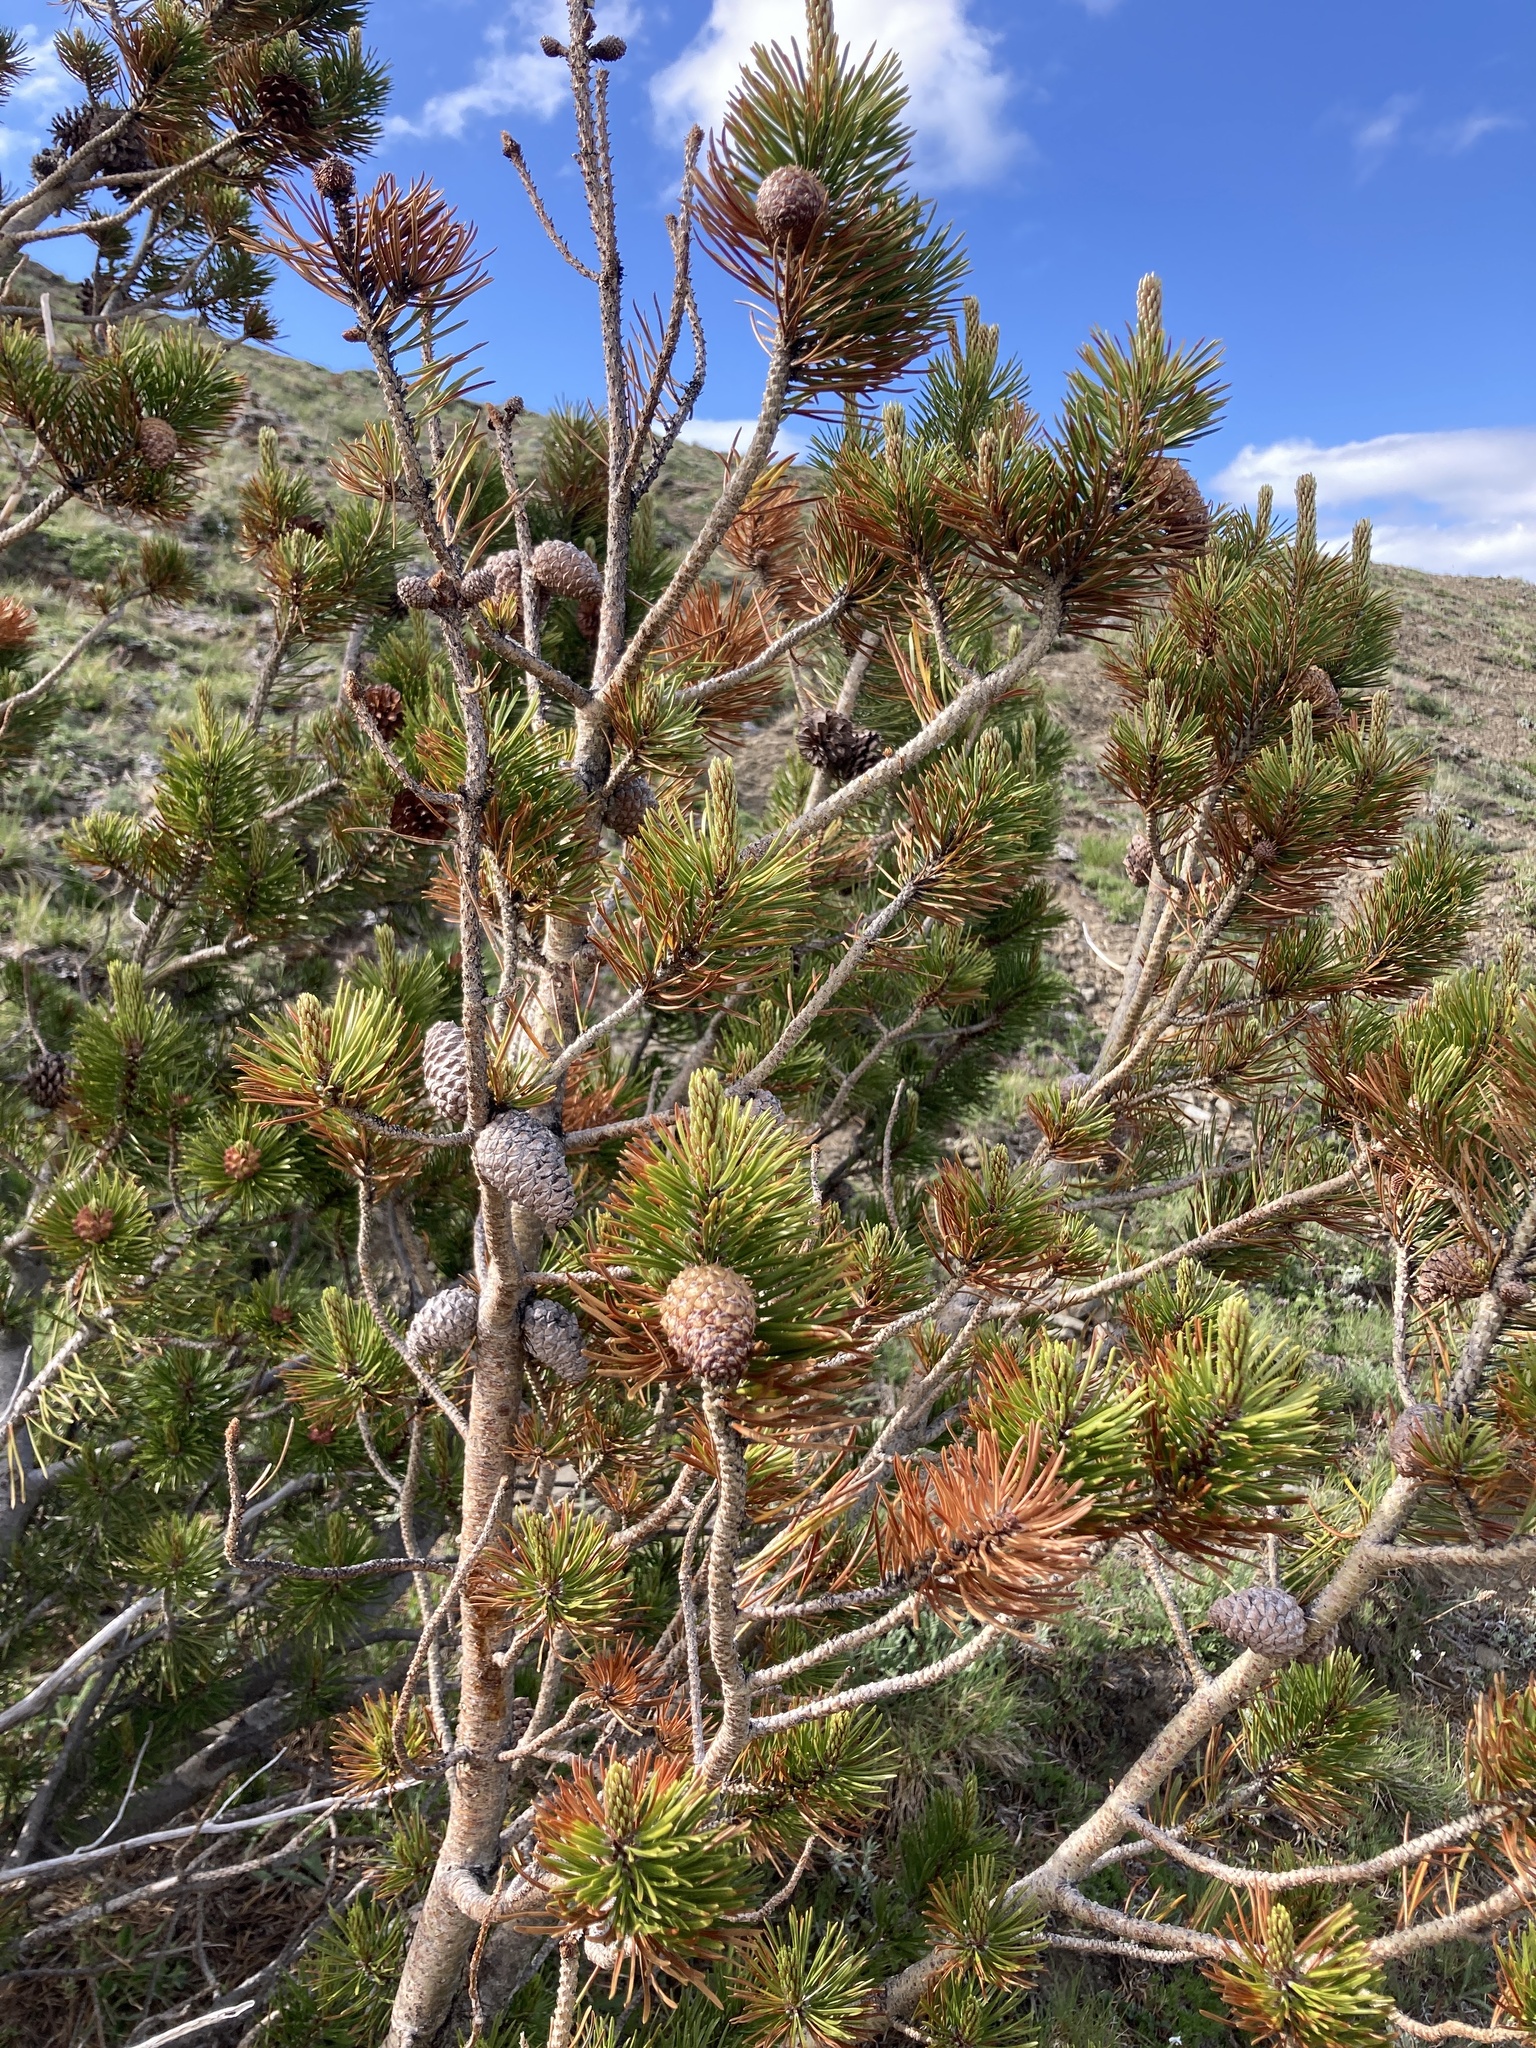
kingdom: Plantae
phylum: Tracheophyta
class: Pinopsida
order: Pinales
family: Pinaceae
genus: Pinus
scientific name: Pinus contorta
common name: Lodgepole pine
